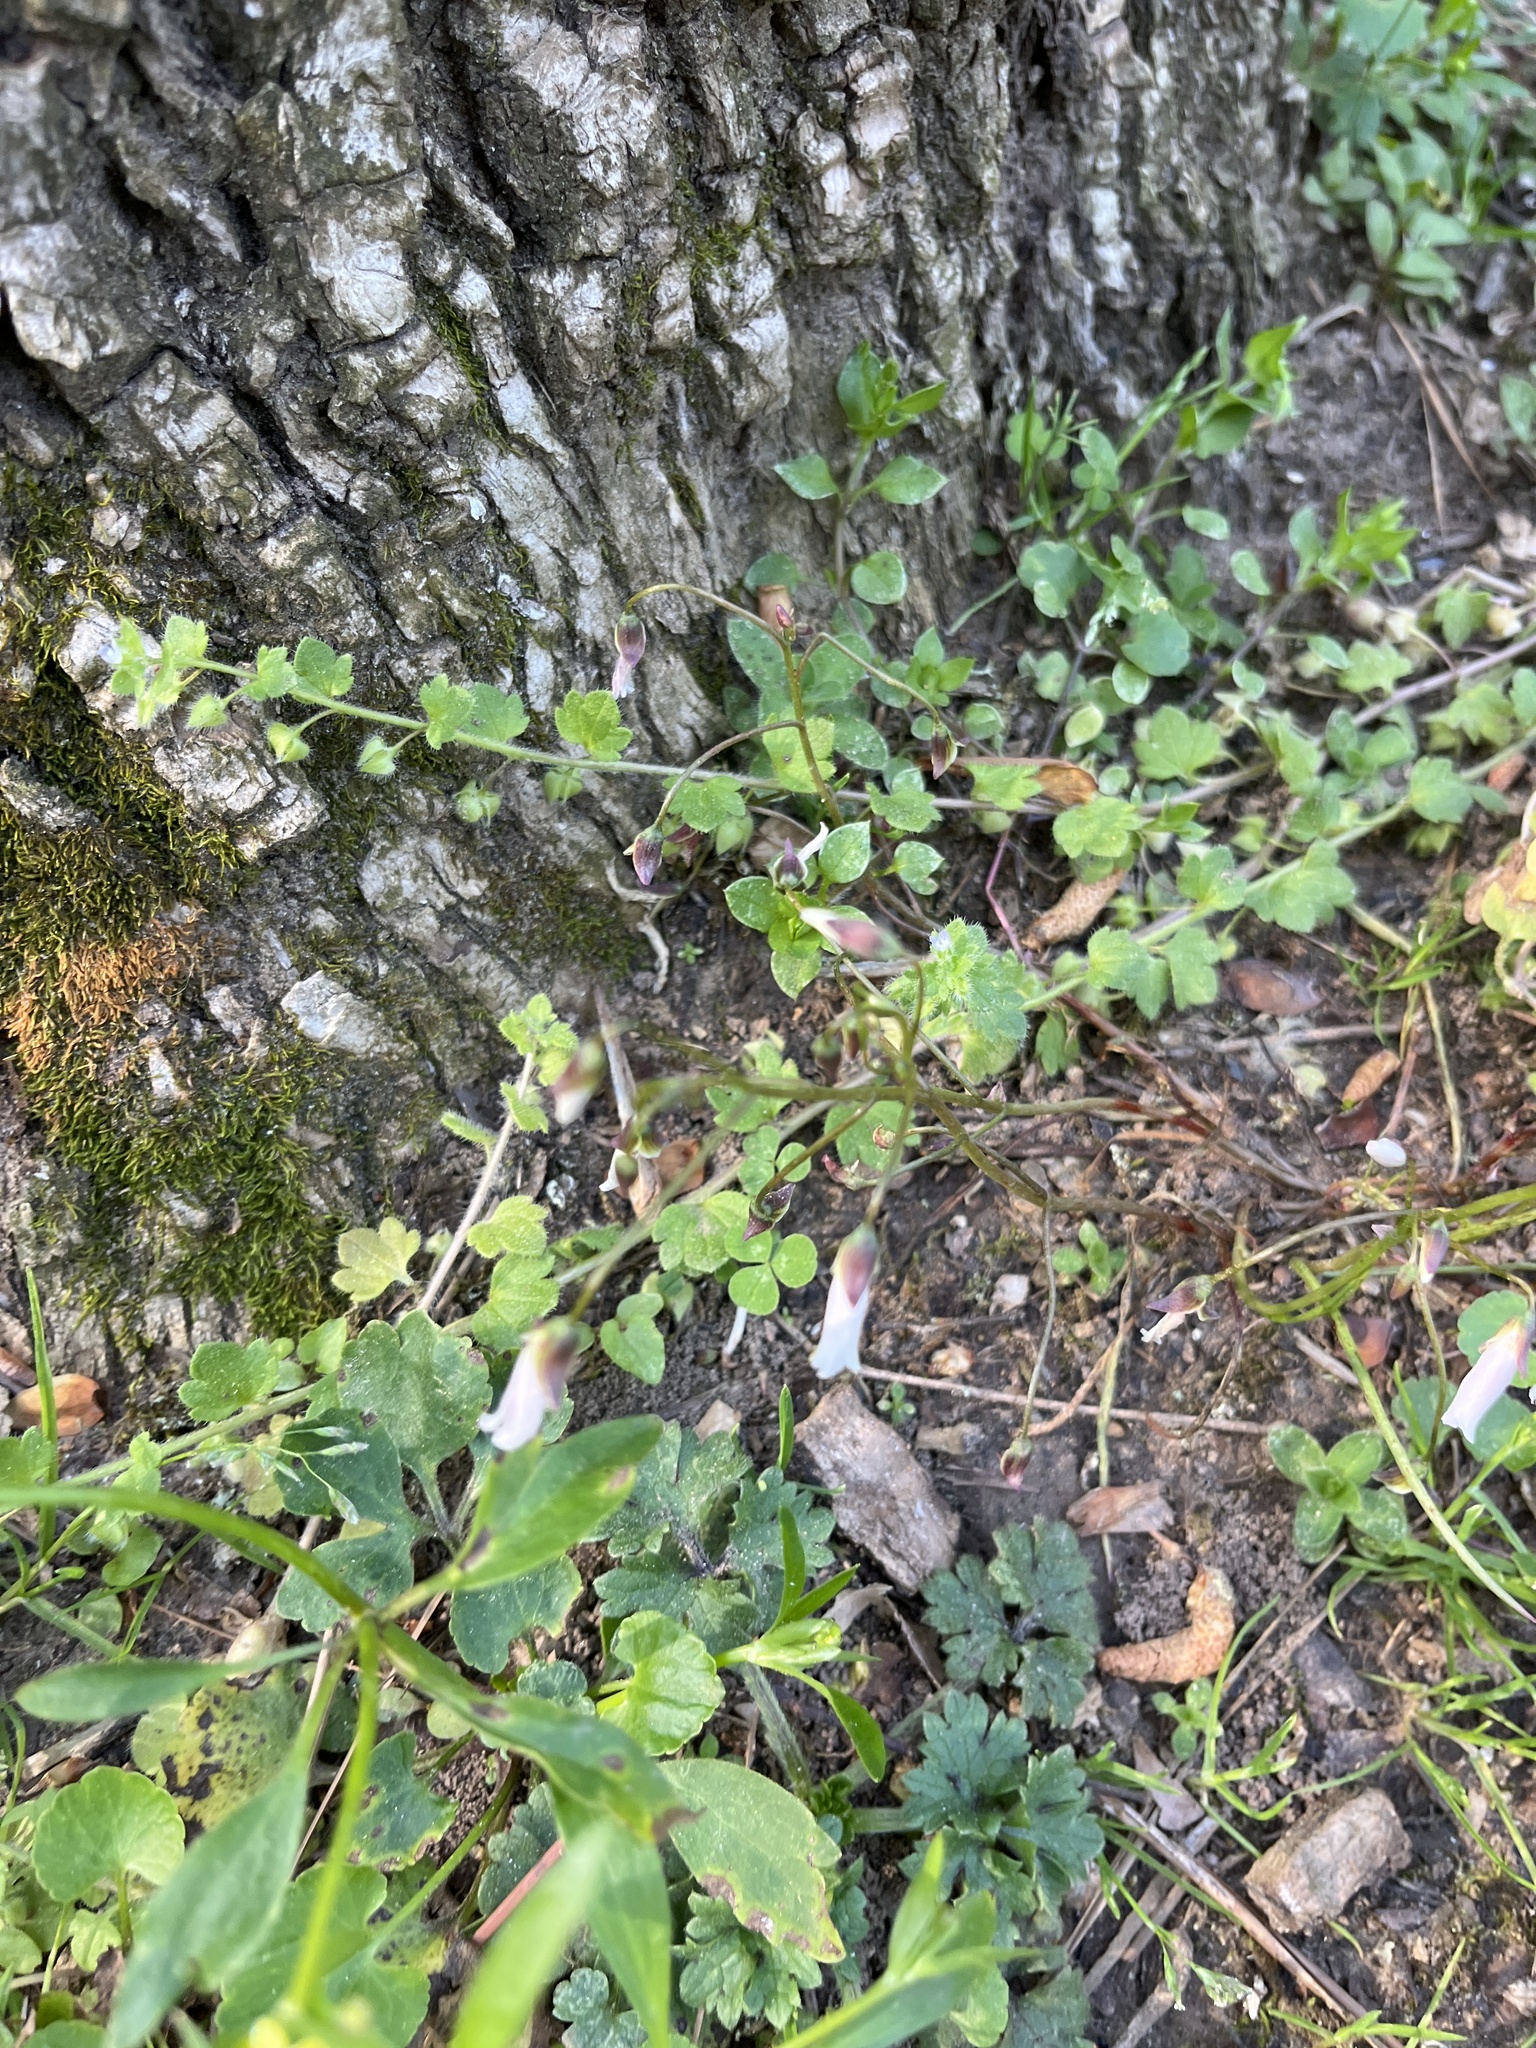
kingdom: Plantae
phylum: Tracheophyta
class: Magnoliopsida
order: Lamiales
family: Plantaginaceae
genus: Veronica
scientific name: Veronica hederifolia
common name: Ivy-leaved speedwell
